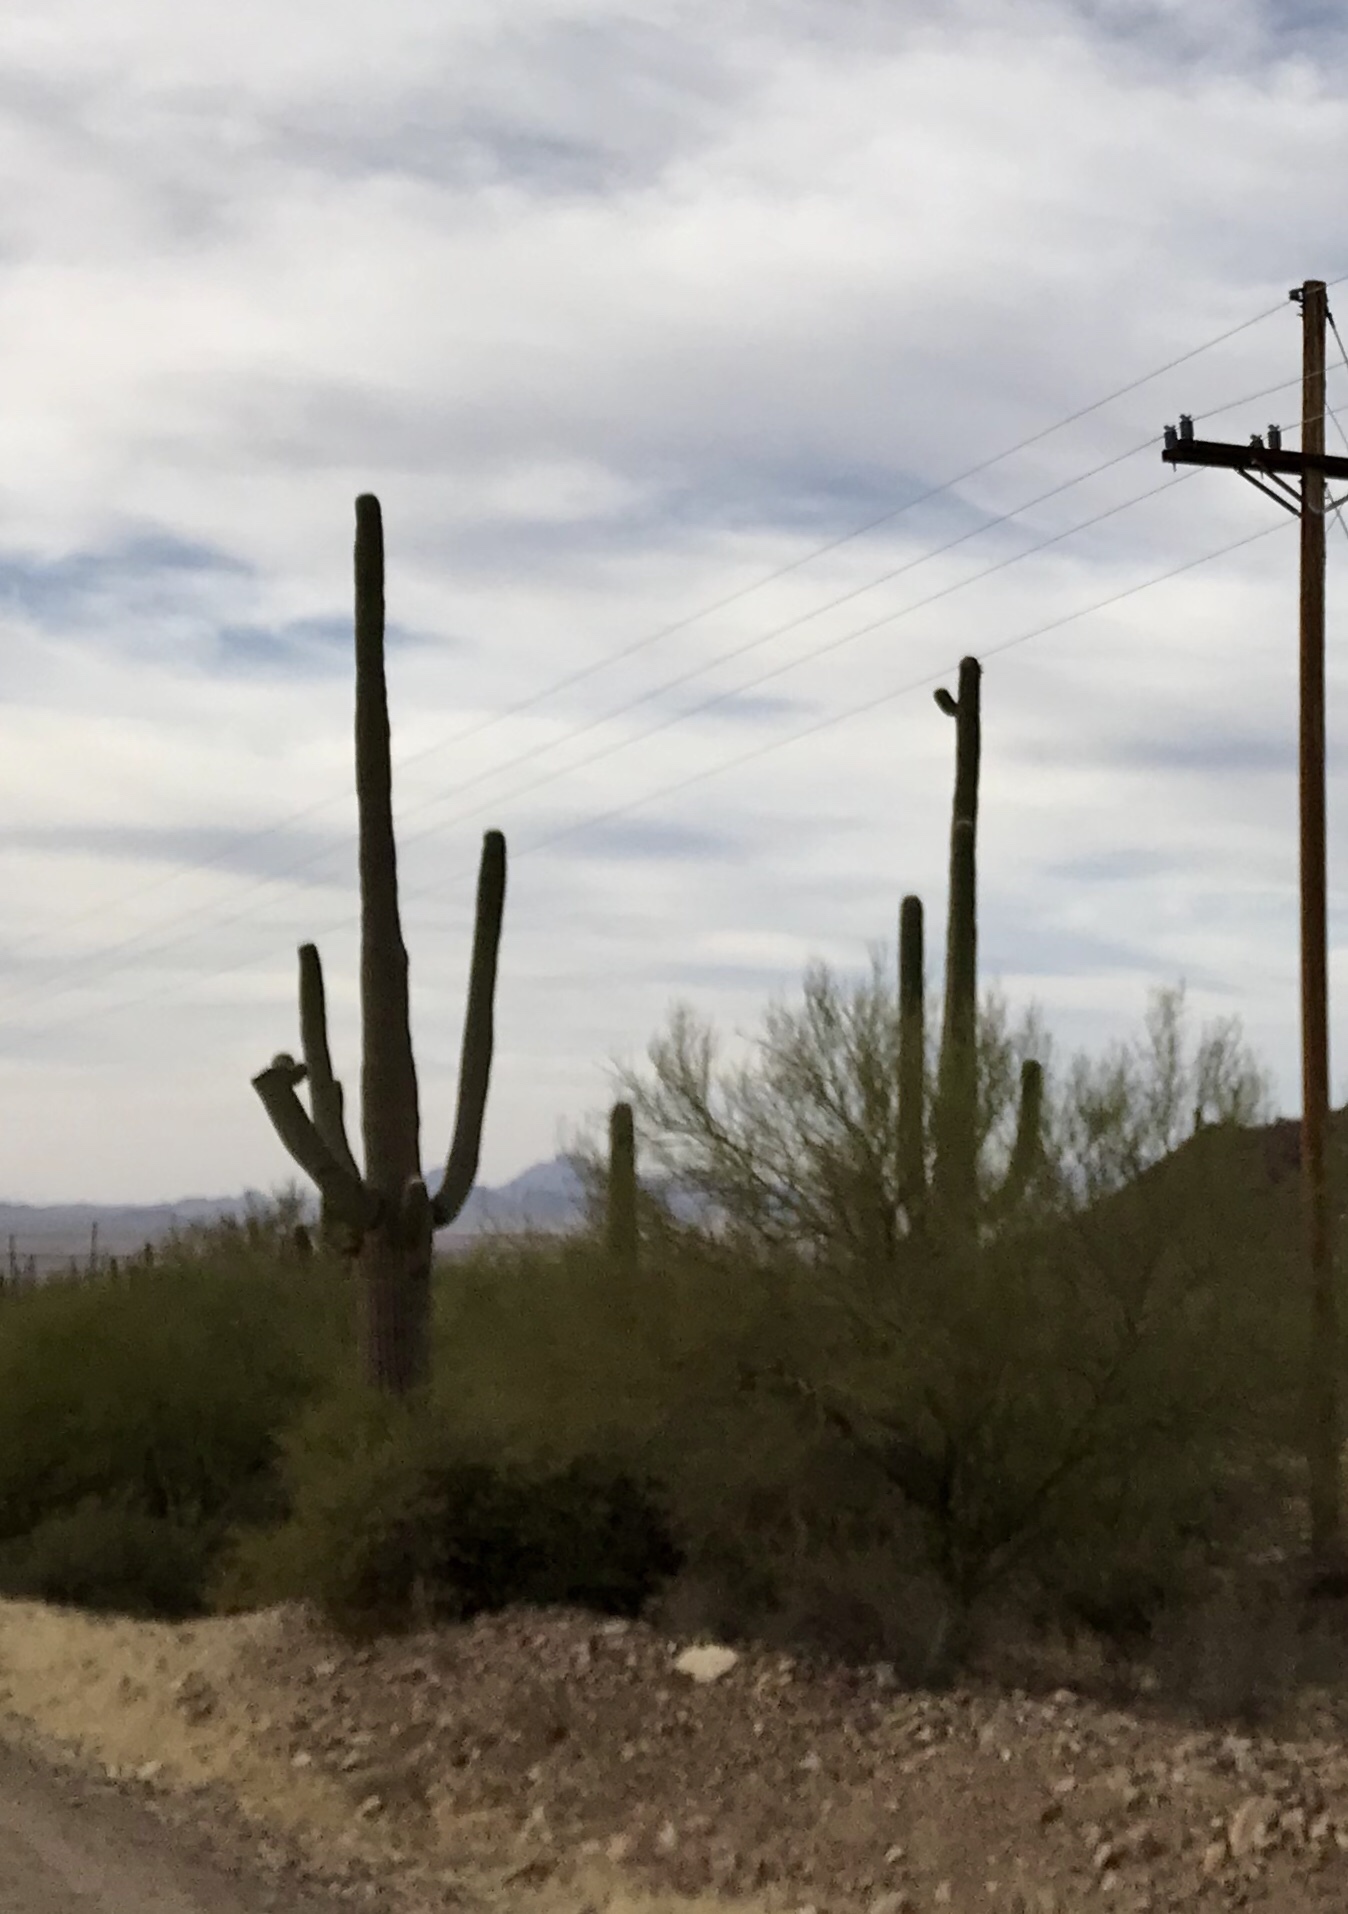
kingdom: Plantae
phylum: Tracheophyta
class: Magnoliopsida
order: Caryophyllales
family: Cactaceae
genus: Carnegiea
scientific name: Carnegiea gigantea
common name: Saguaro
